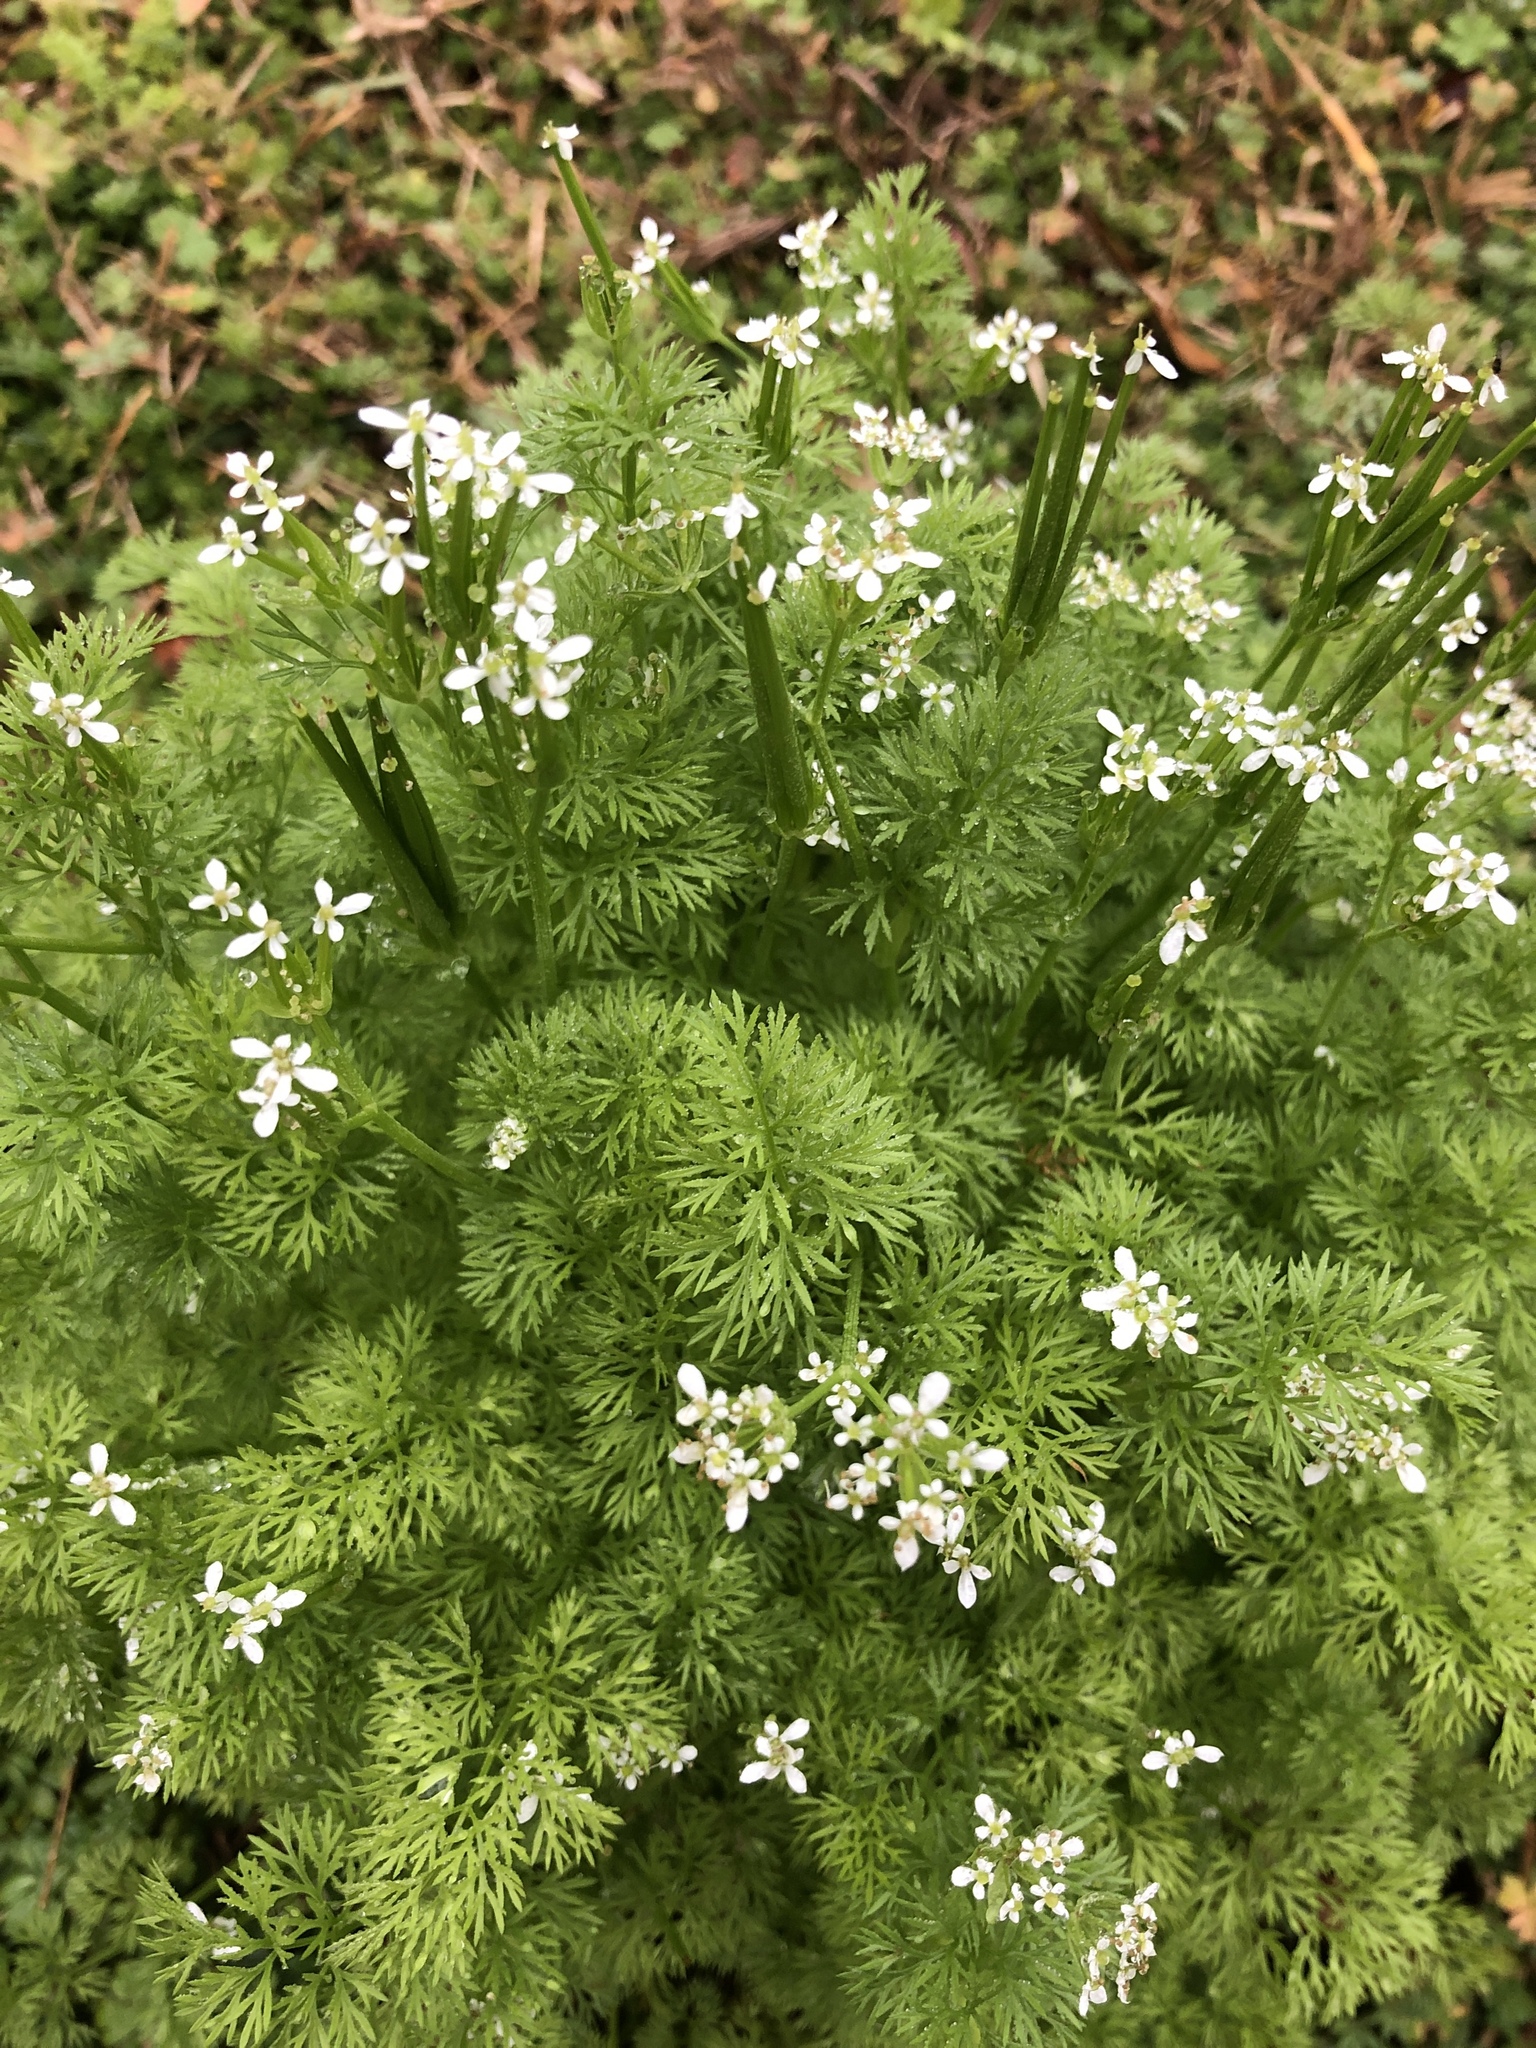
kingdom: Plantae
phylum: Tracheophyta
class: Magnoliopsida
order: Apiales
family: Apiaceae
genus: Scandix
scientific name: Scandix pecten-veneris
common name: Shepherd's-needle
